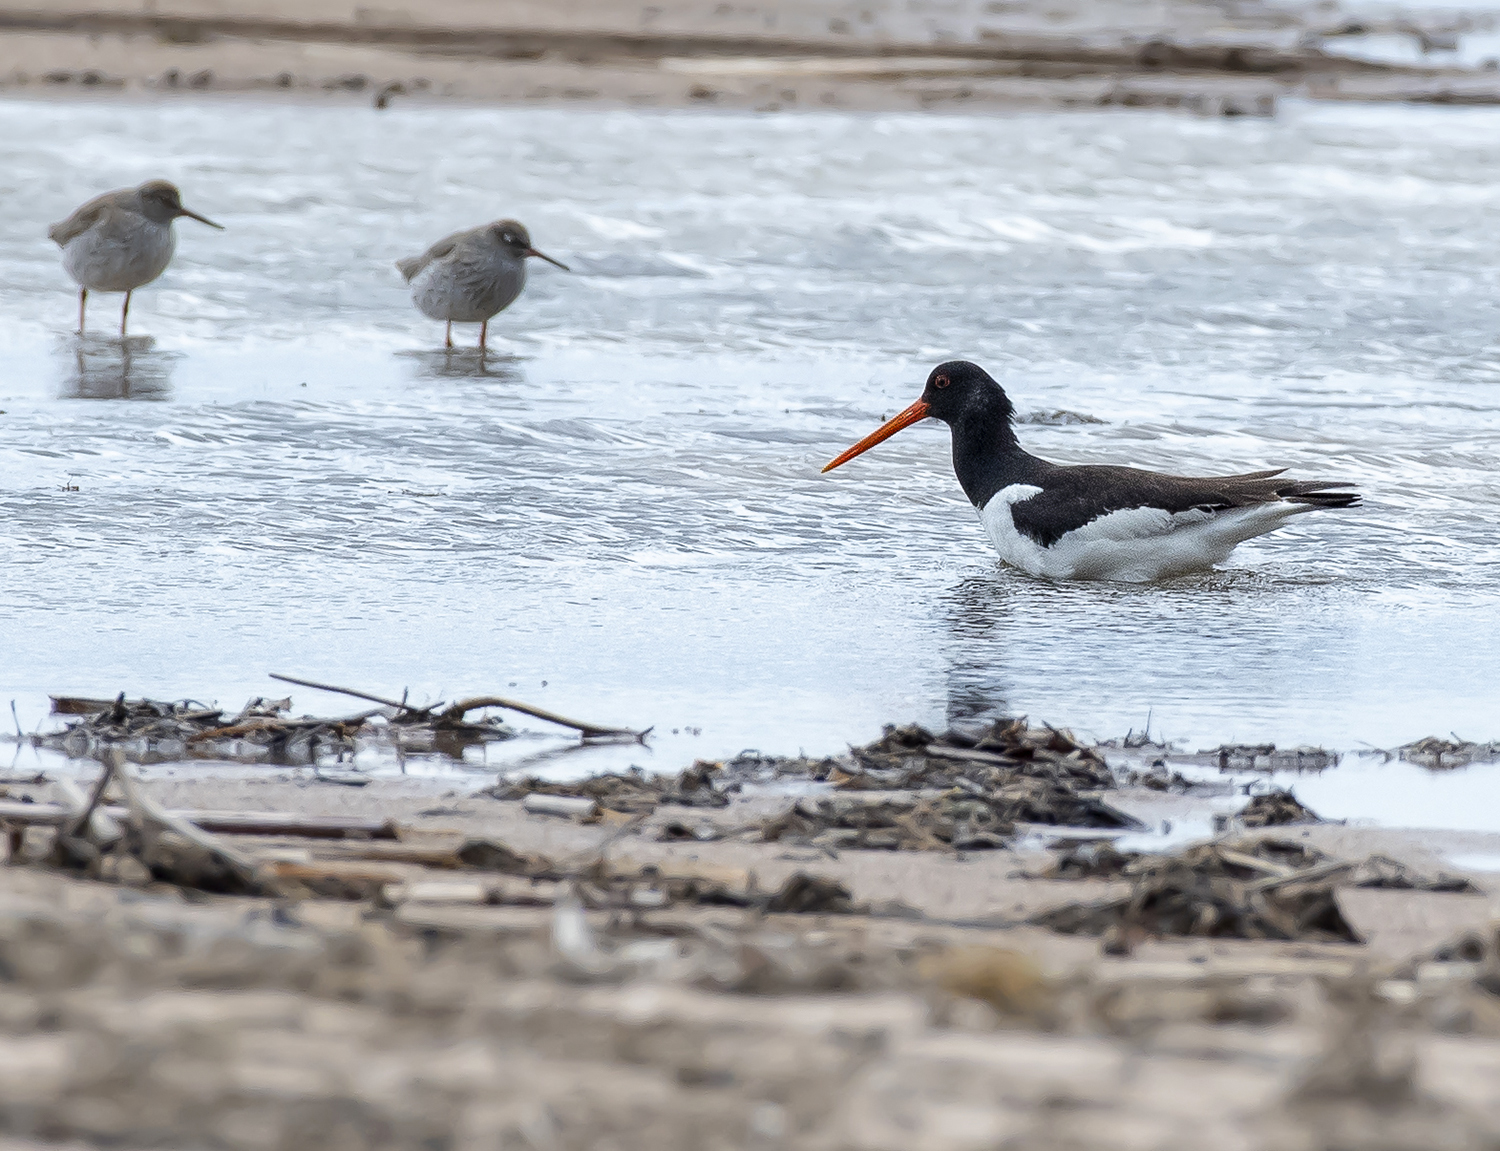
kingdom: Animalia
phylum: Chordata
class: Aves
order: Charadriiformes
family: Haematopodidae
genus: Haematopus
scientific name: Haematopus ostralegus
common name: Eurasian oystercatcher
